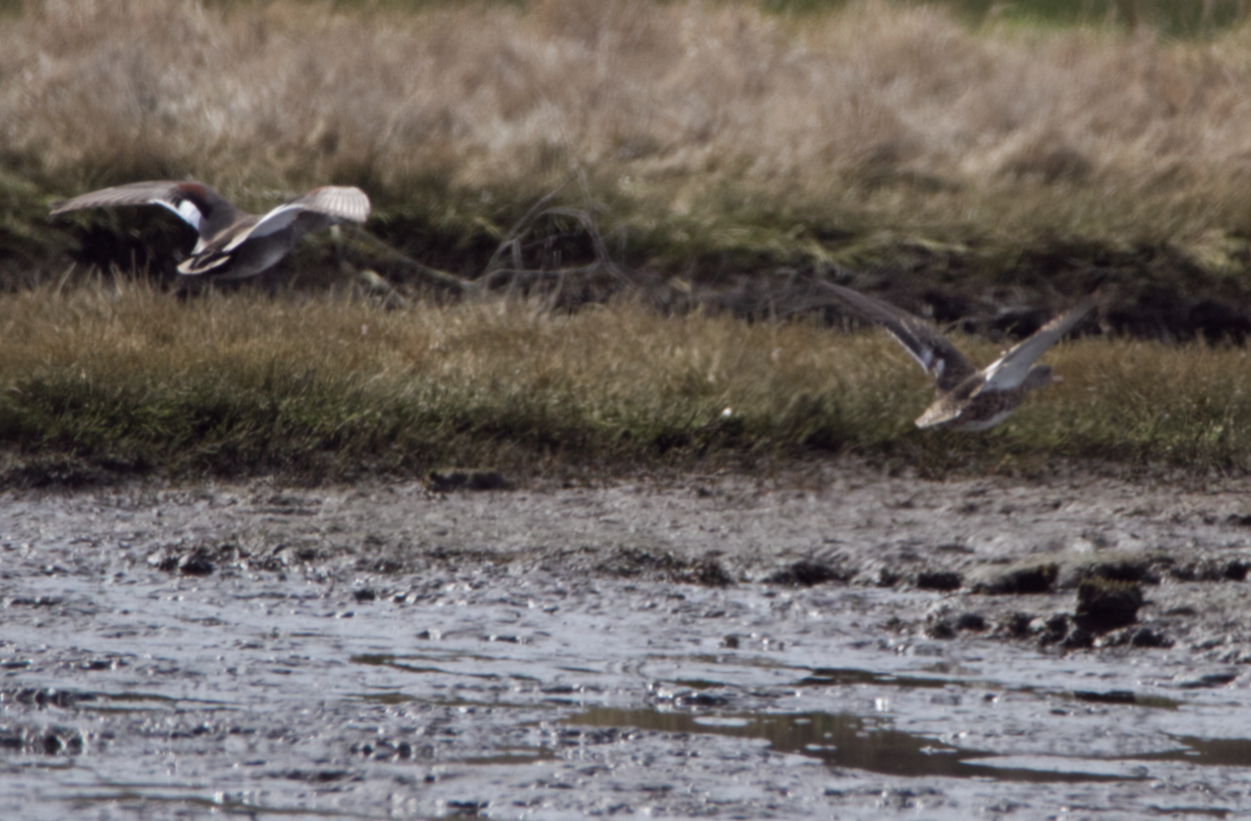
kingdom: Animalia
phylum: Chordata
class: Aves
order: Anseriformes
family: Anatidae
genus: Mareca
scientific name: Mareca strepera
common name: Gadwall
